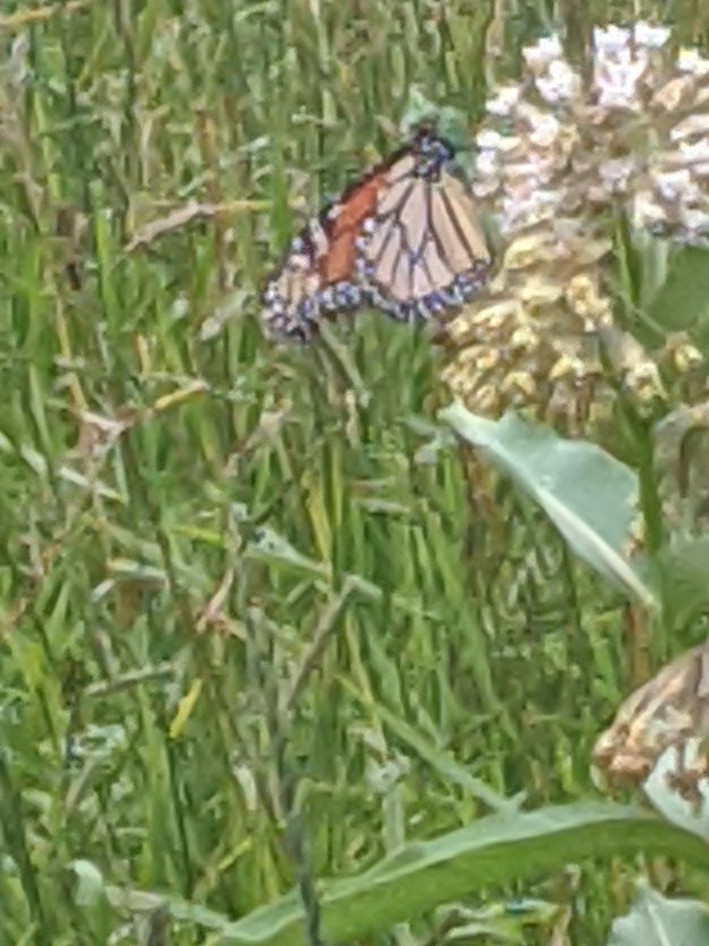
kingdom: Animalia
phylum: Arthropoda
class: Insecta
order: Lepidoptera
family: Nymphalidae
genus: Danaus
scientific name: Danaus plexippus
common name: Monarch
